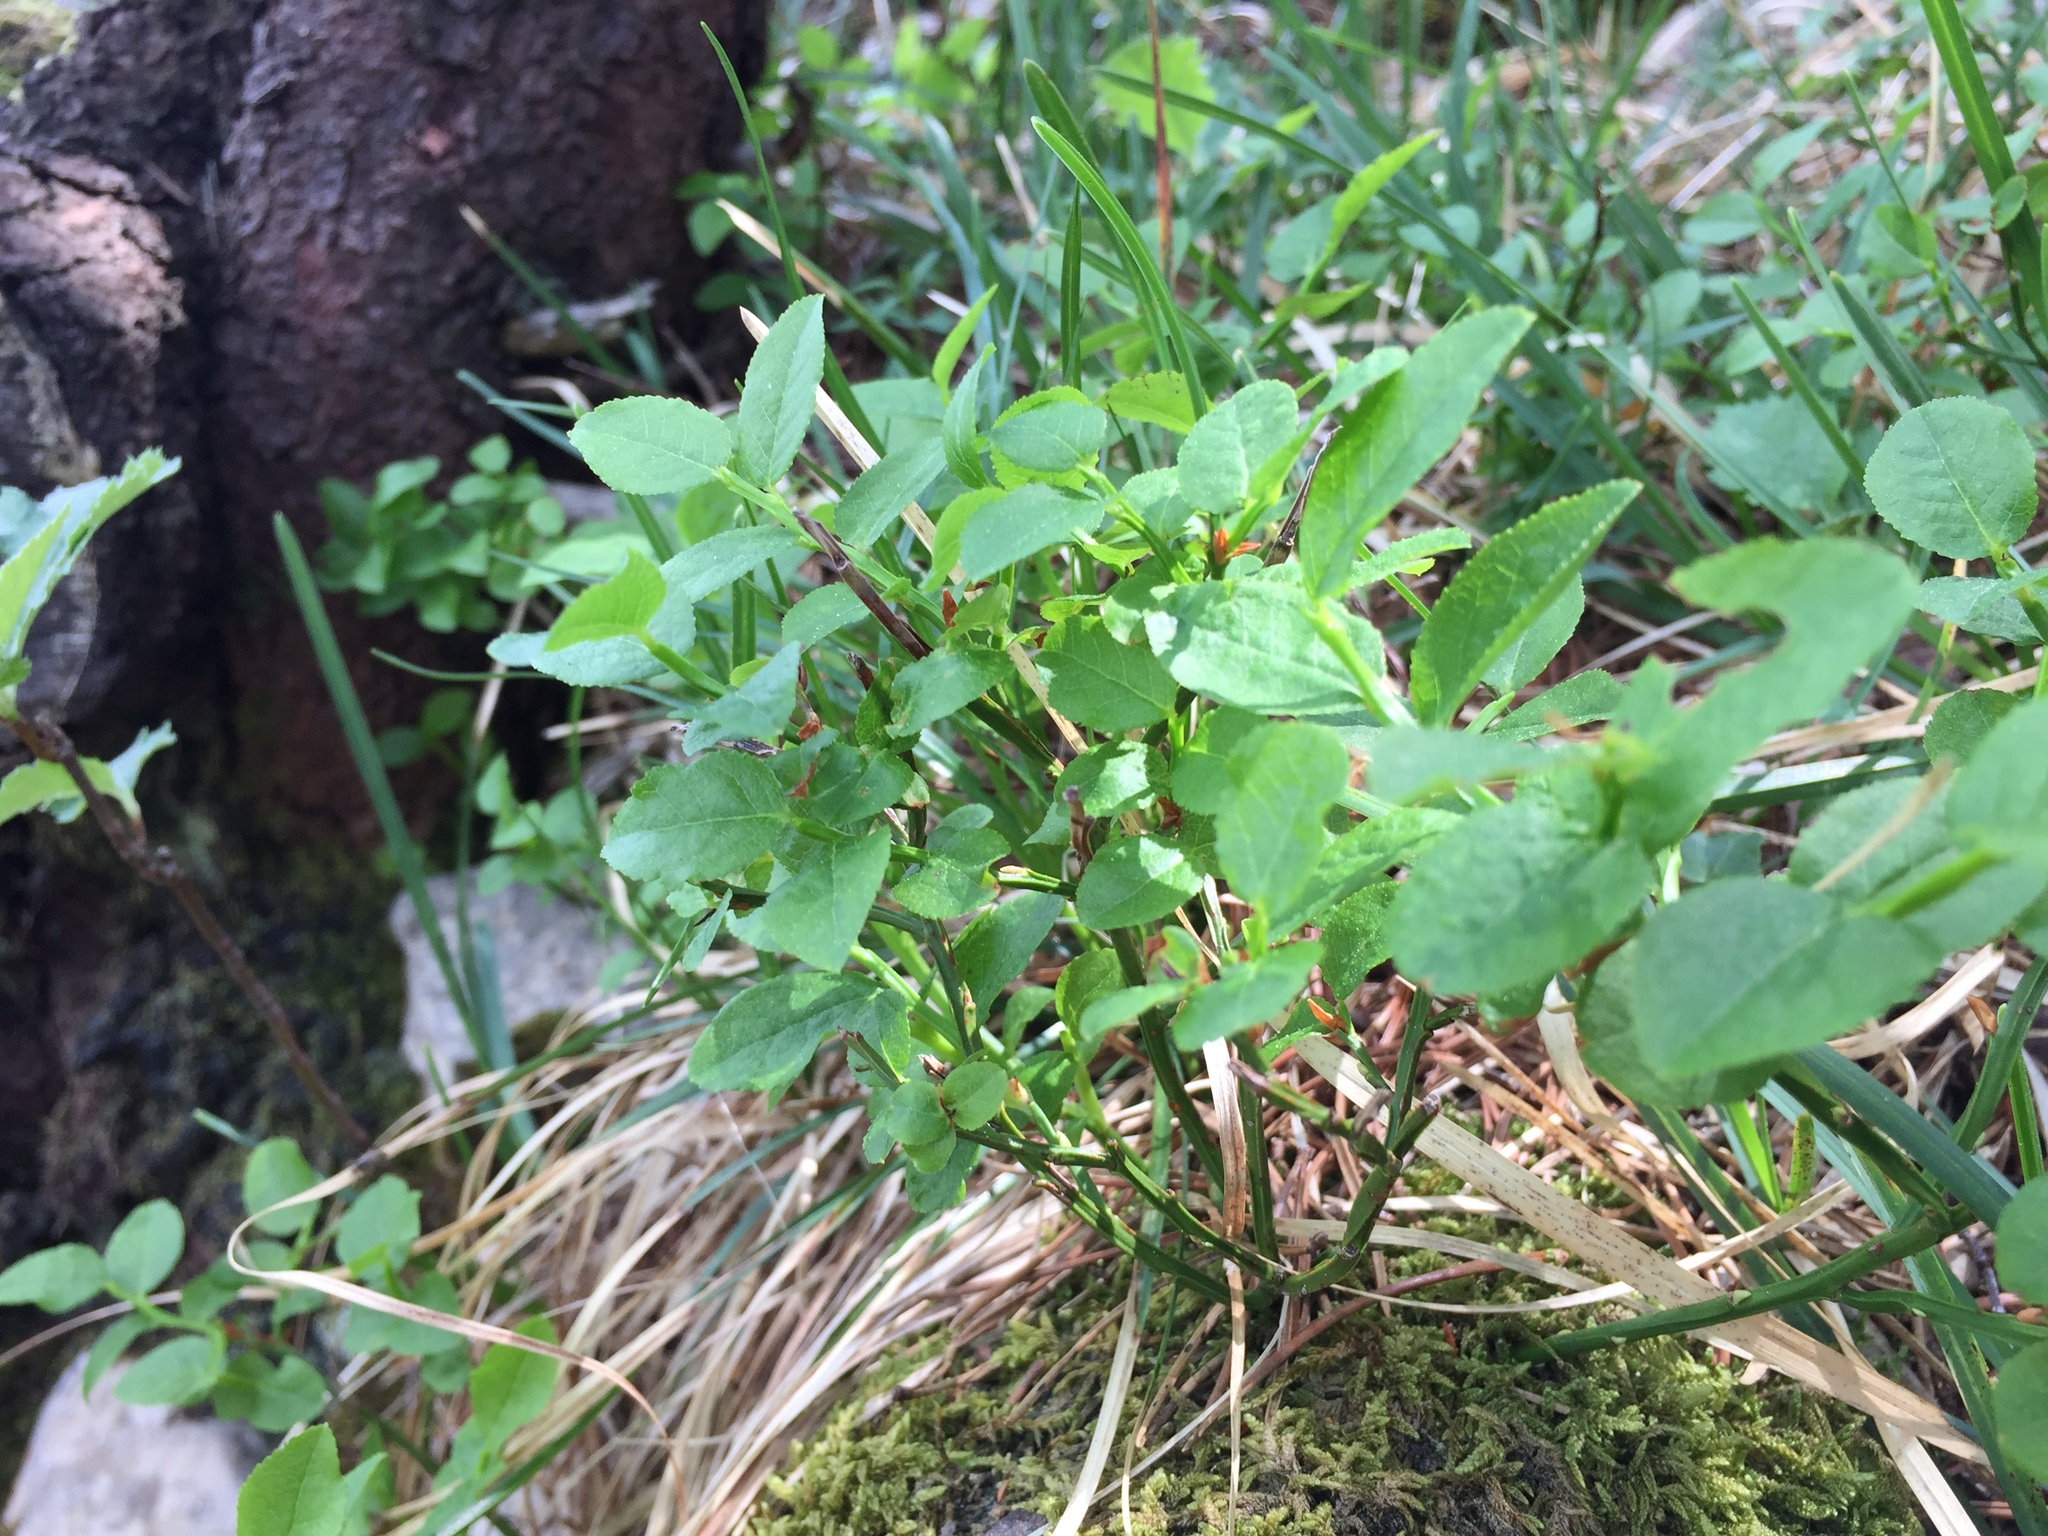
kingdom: Plantae
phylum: Tracheophyta
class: Magnoliopsida
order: Ericales
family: Ericaceae
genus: Vaccinium
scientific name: Vaccinium myrtillus
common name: Bilberry
